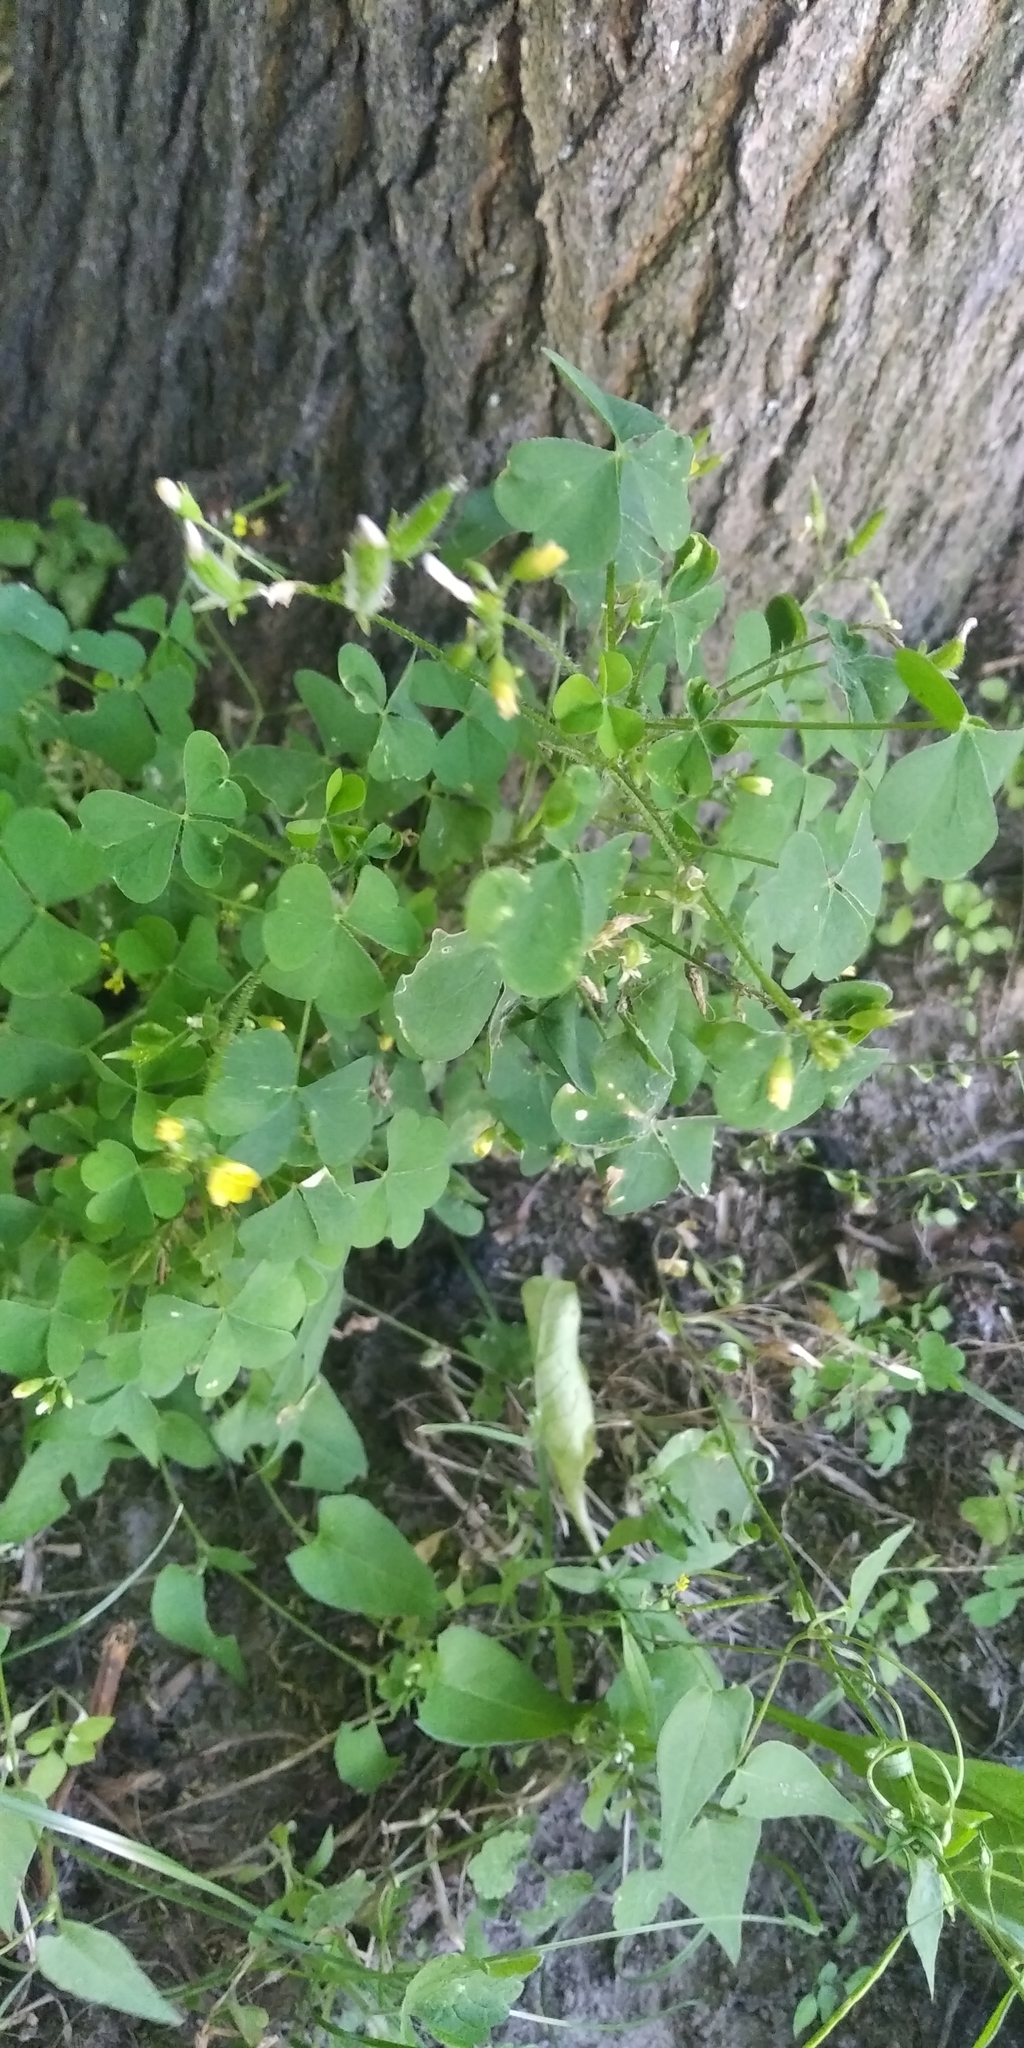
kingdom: Plantae
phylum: Tracheophyta
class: Magnoliopsida
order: Oxalidales
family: Oxalidaceae
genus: Oxalis
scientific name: Oxalis stricta
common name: Upright yellow-sorrel
